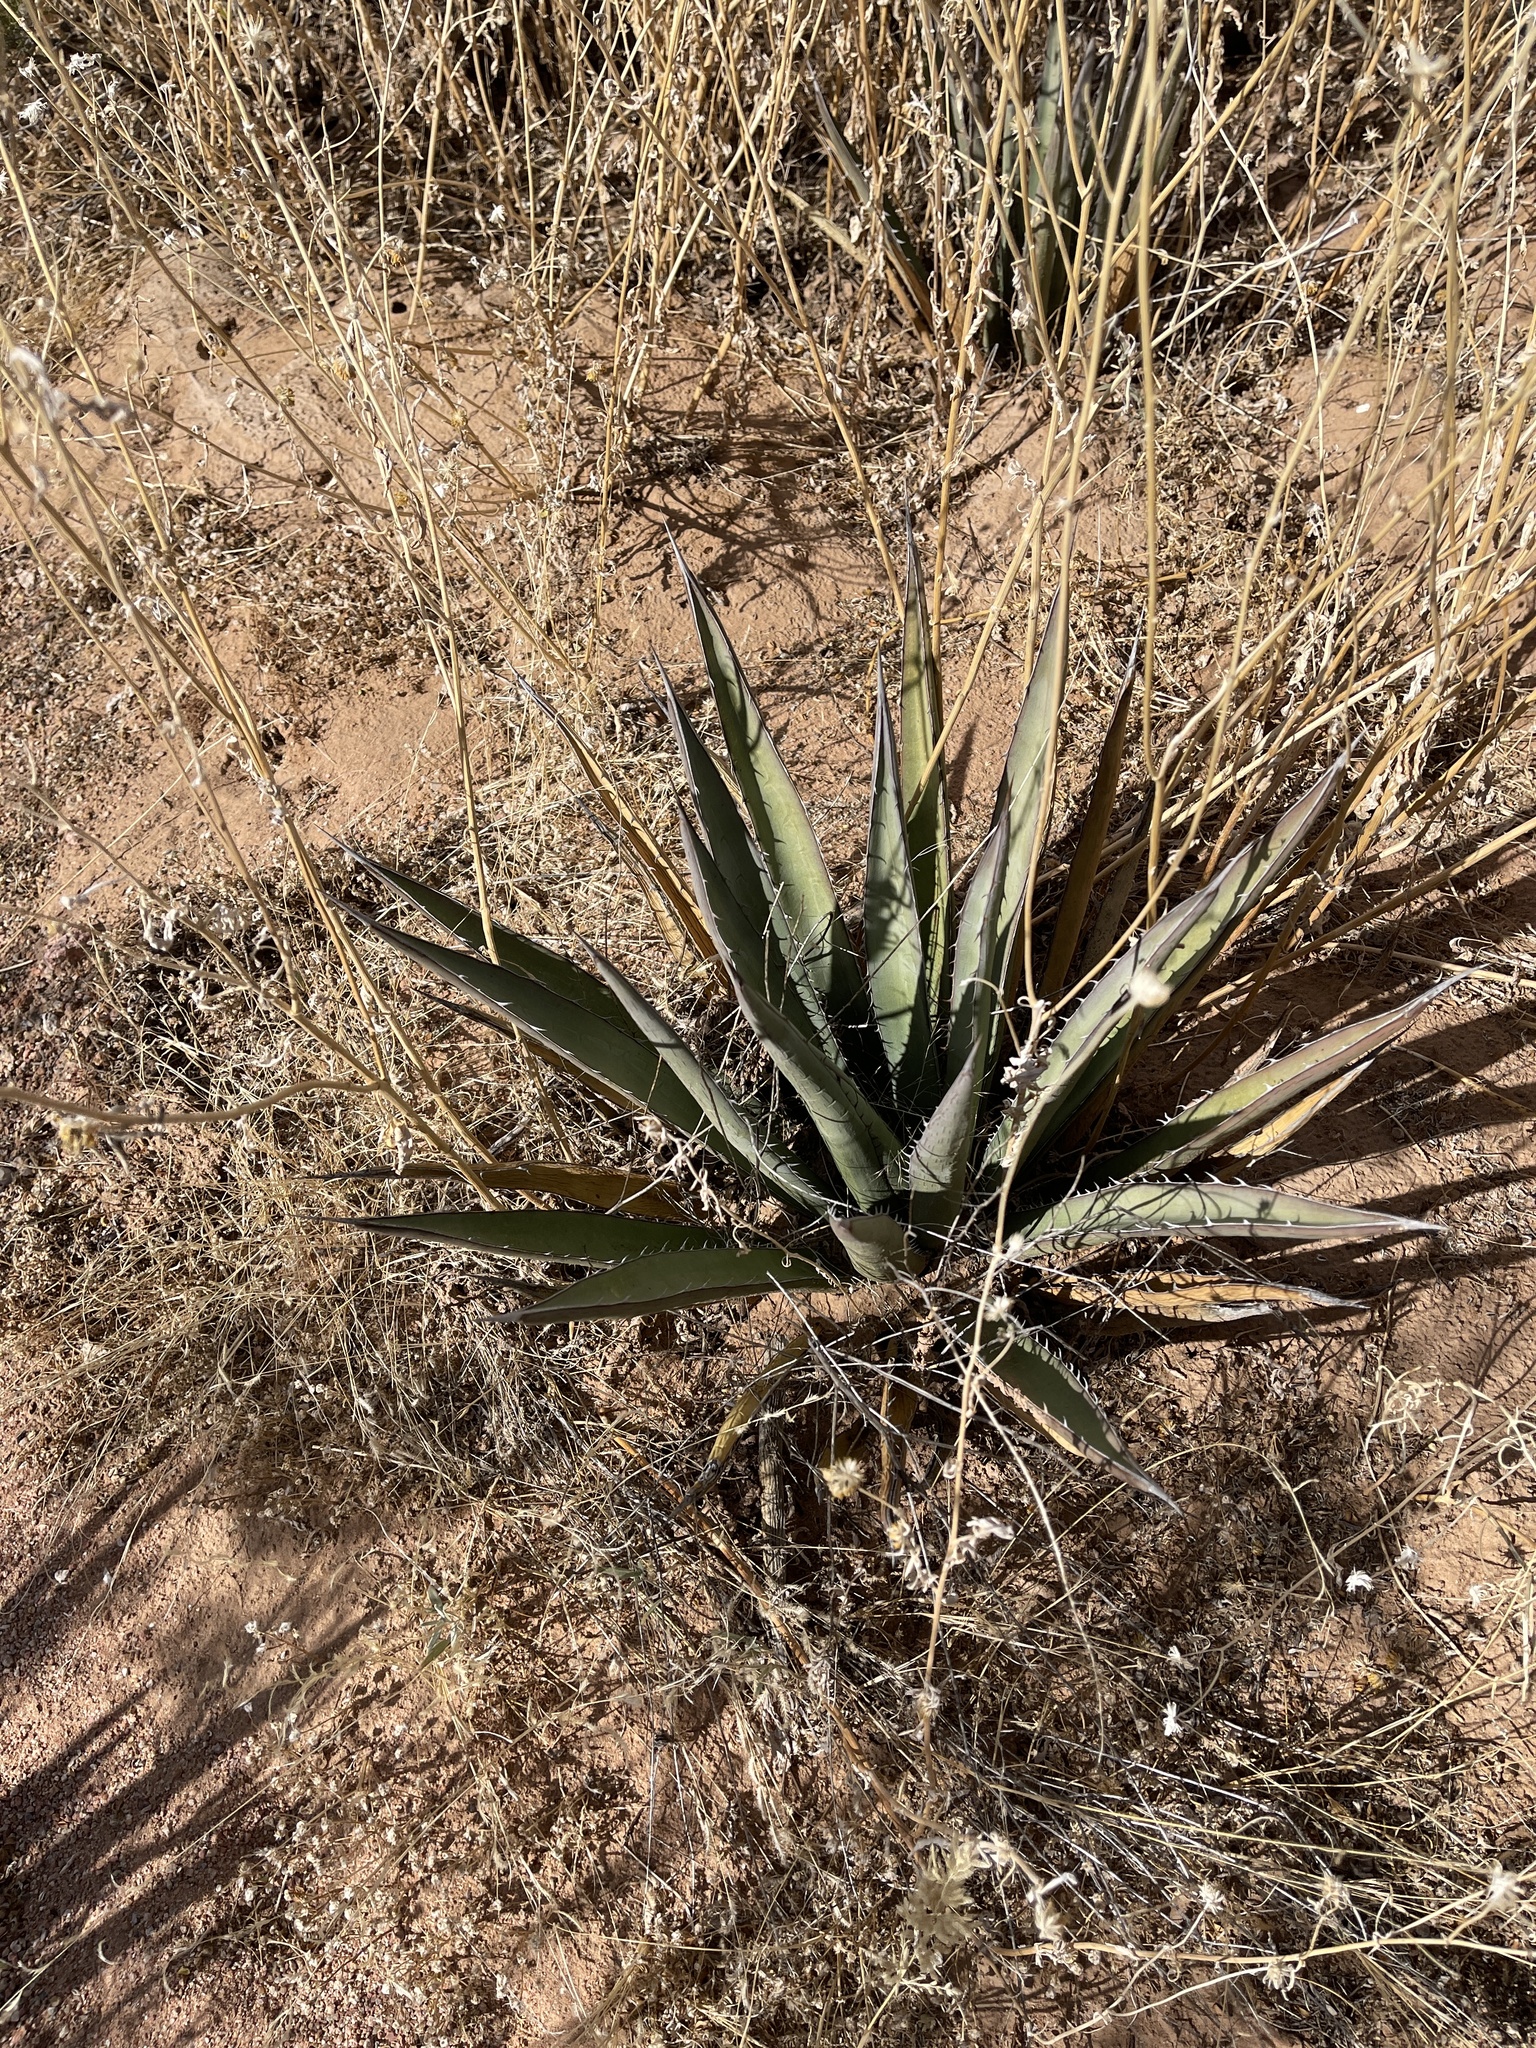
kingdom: Plantae
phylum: Tracheophyta
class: Liliopsida
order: Asparagales
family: Asparagaceae
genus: Agave
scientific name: Agave lechuguilla
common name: Lecheguilla agave
